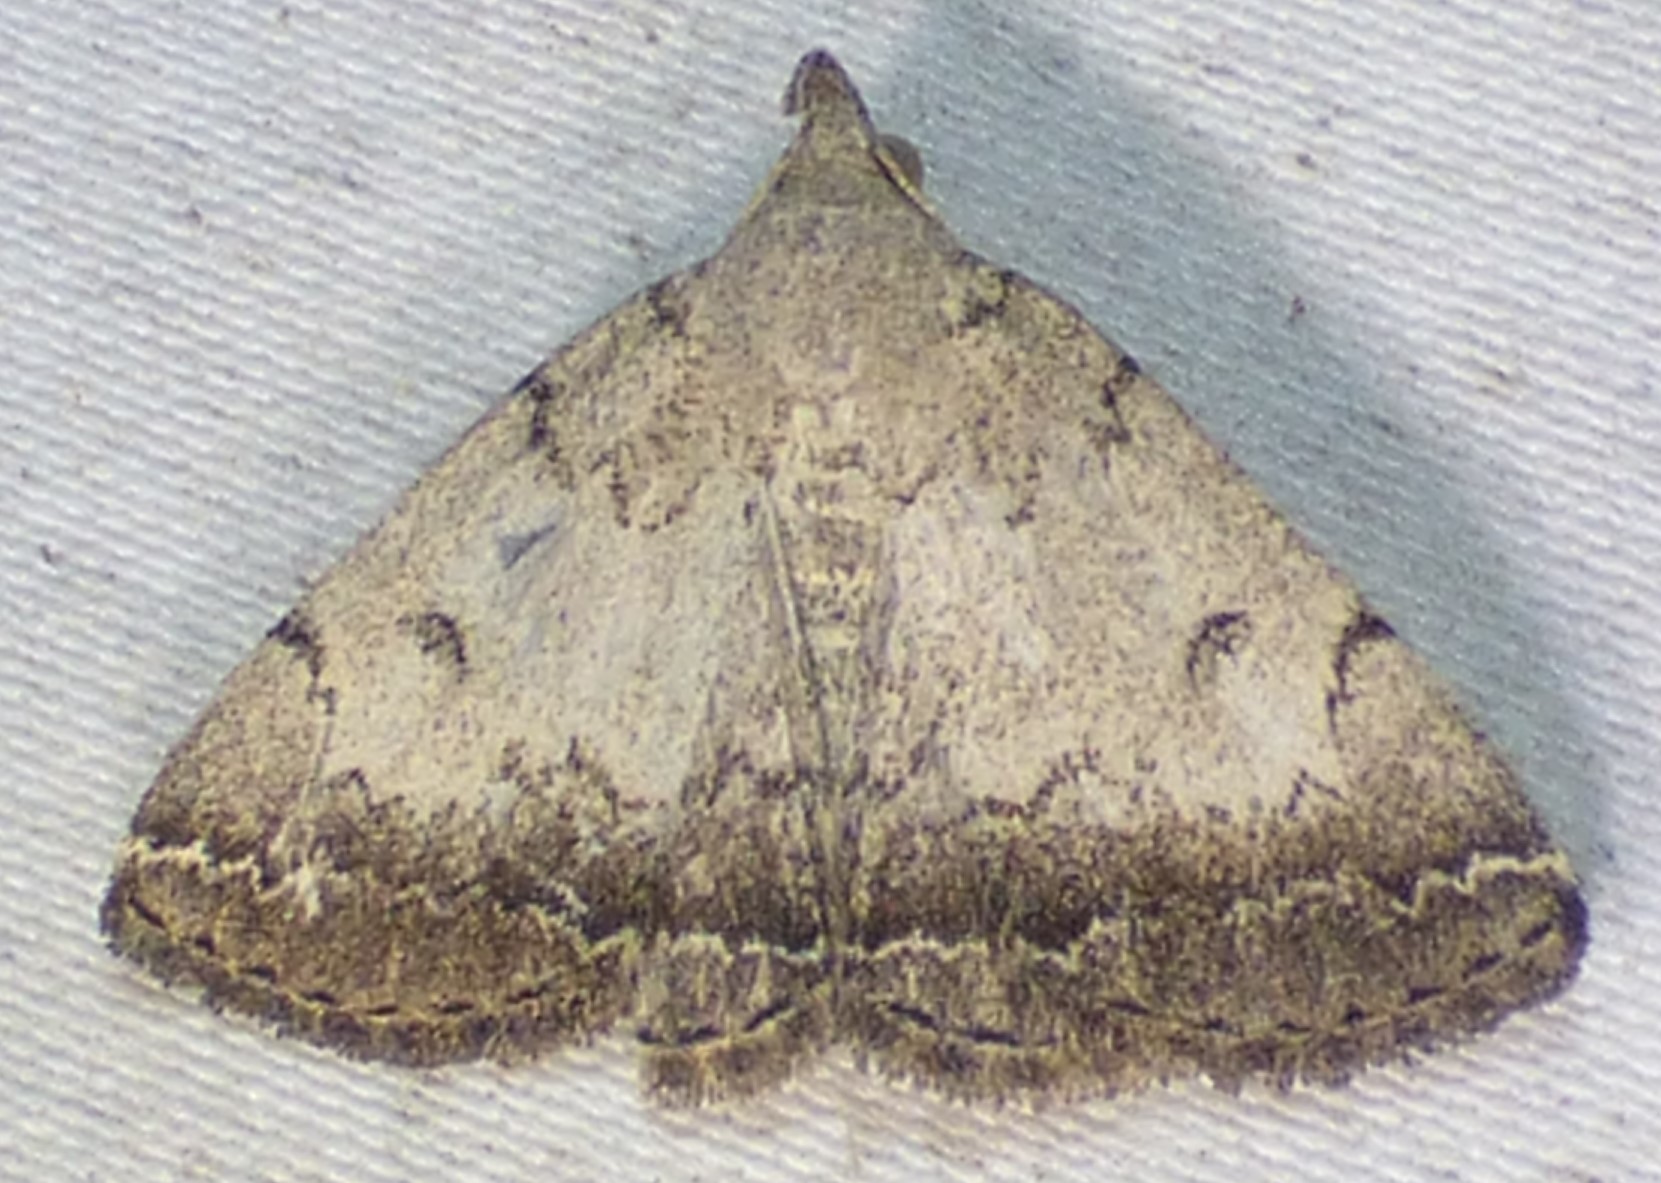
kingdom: Animalia
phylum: Arthropoda
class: Insecta
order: Lepidoptera
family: Erebidae
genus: Zanclognatha
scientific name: Zanclognatha theralis
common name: Flagged fan-foot
